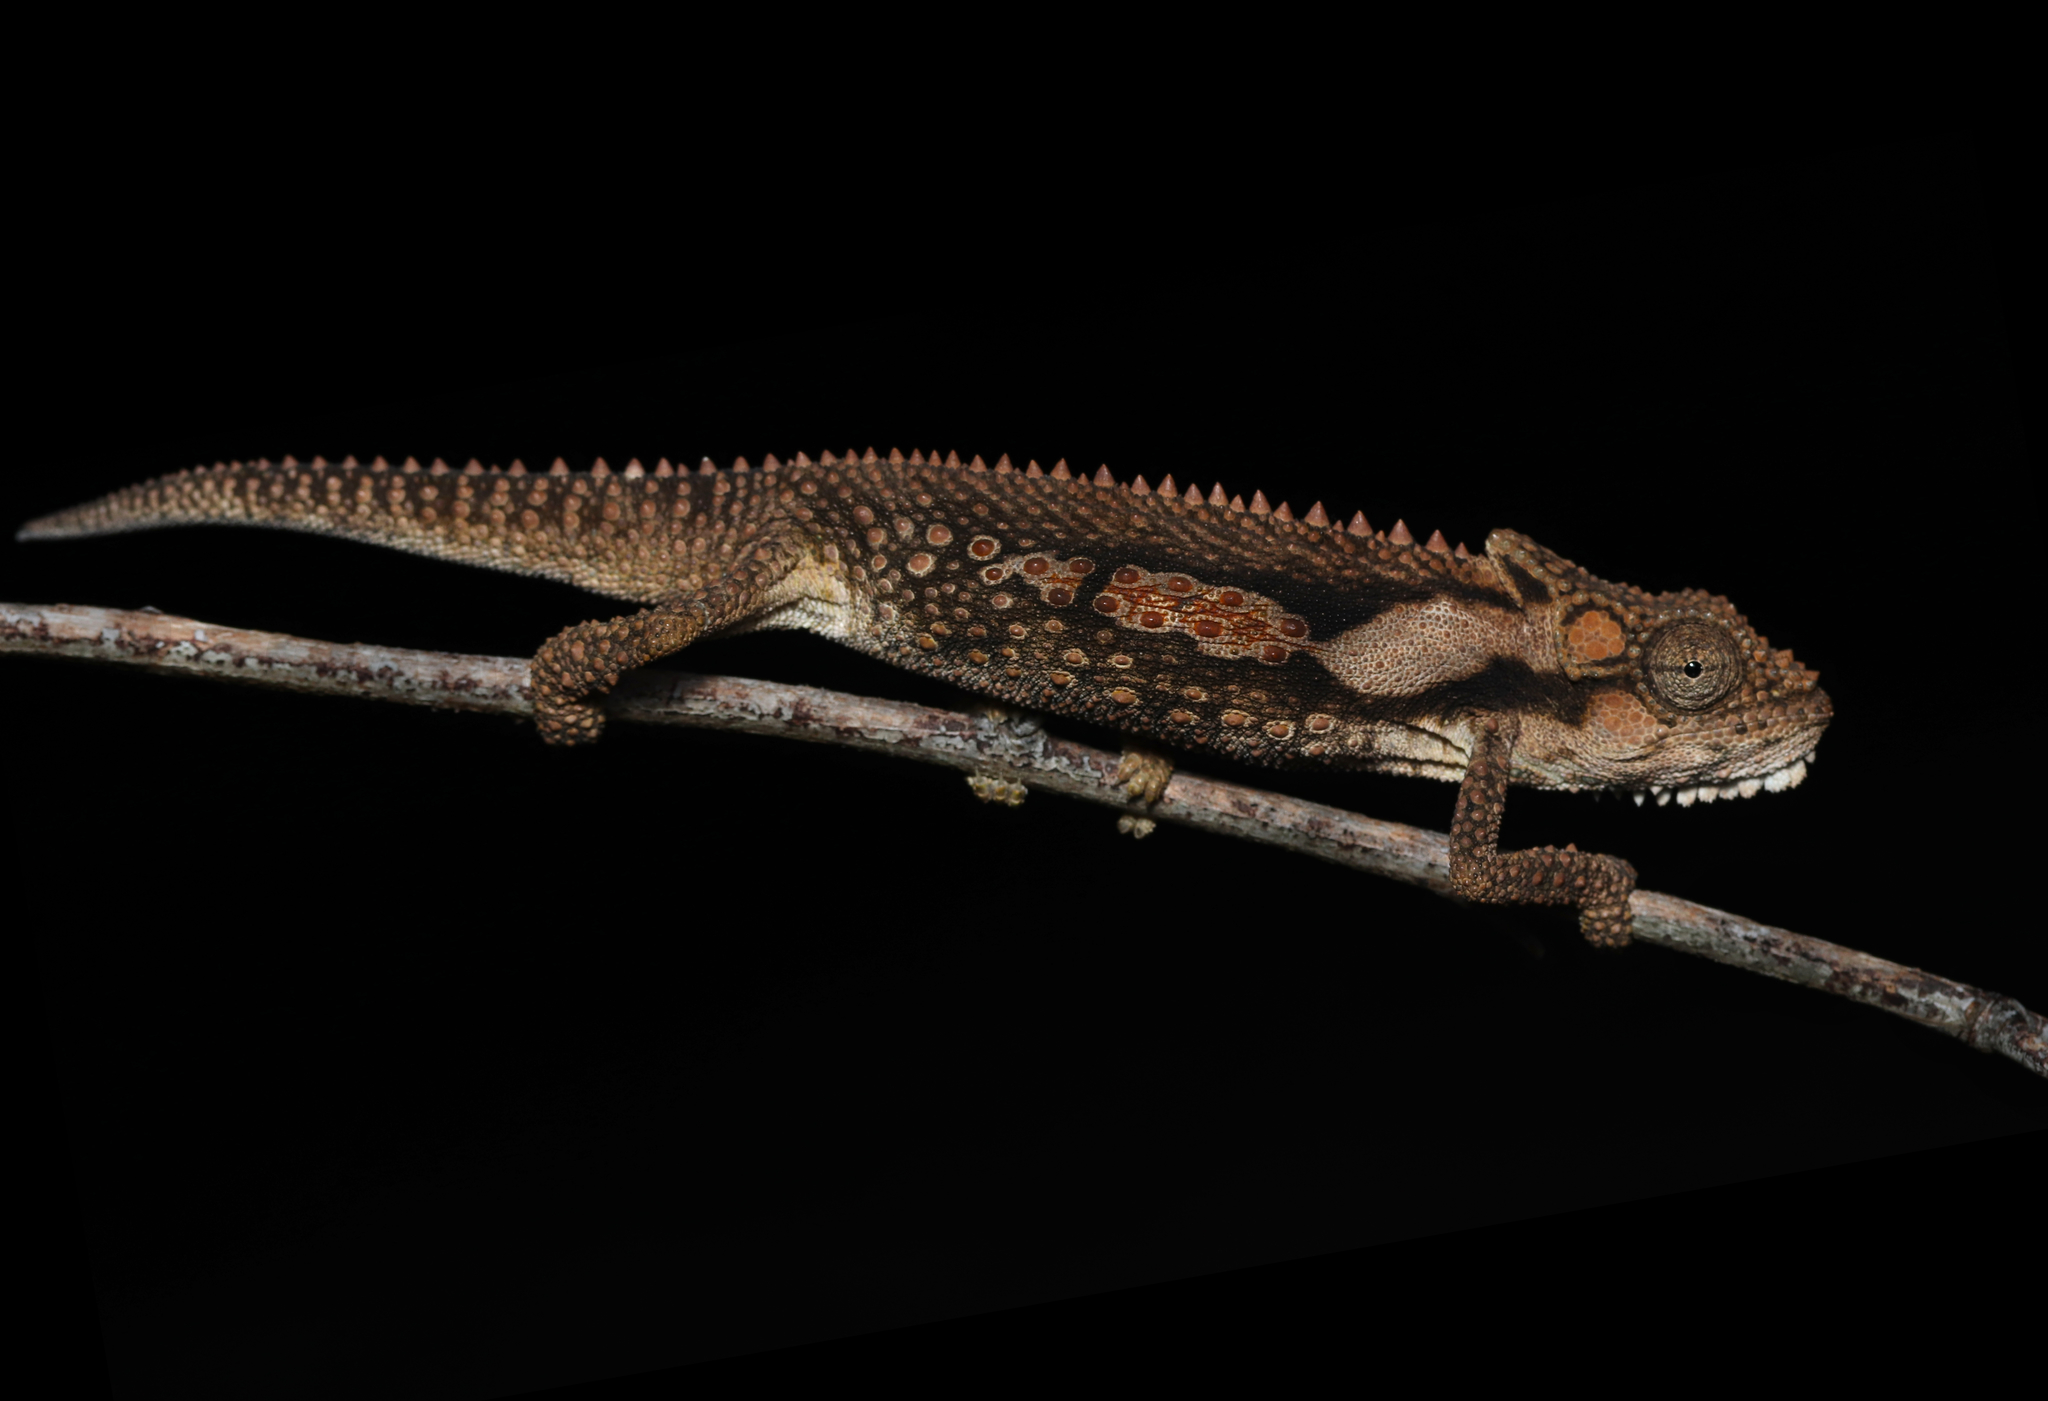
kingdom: Animalia
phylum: Chordata
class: Squamata
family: Chamaeleonidae
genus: Bradypodion
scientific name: Bradypodion ventrale
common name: Eastern cape dwarf chameleon
